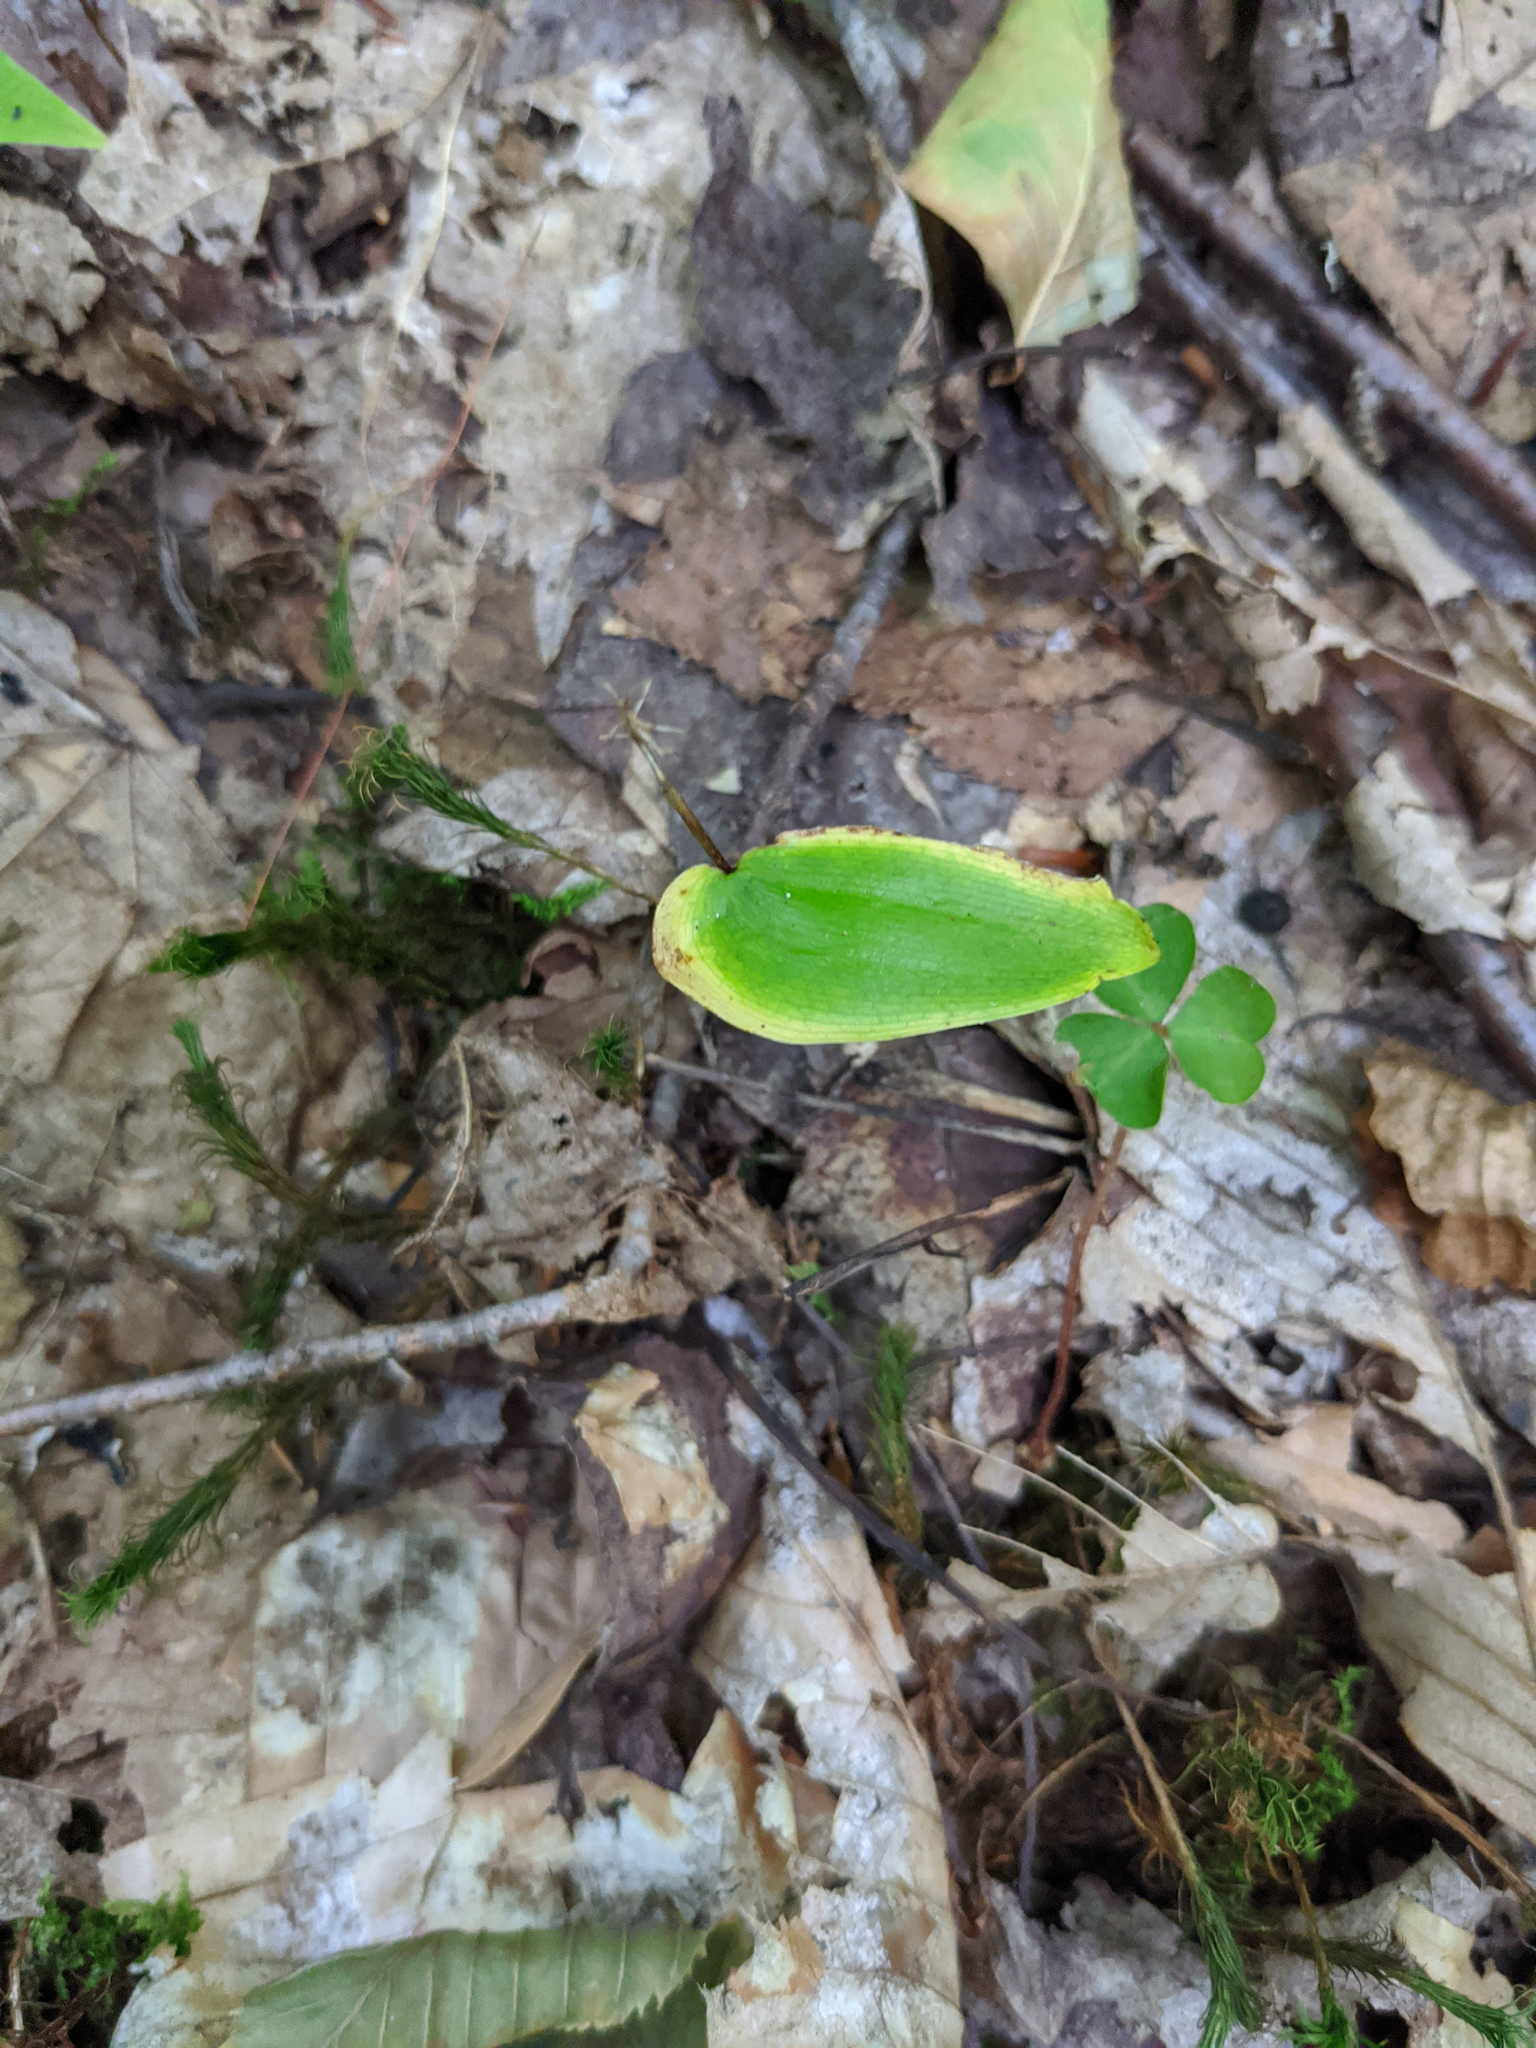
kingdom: Plantae
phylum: Tracheophyta
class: Liliopsida
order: Asparagales
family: Asparagaceae
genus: Maianthemum
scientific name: Maianthemum canadense
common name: False lily-of-the-valley
